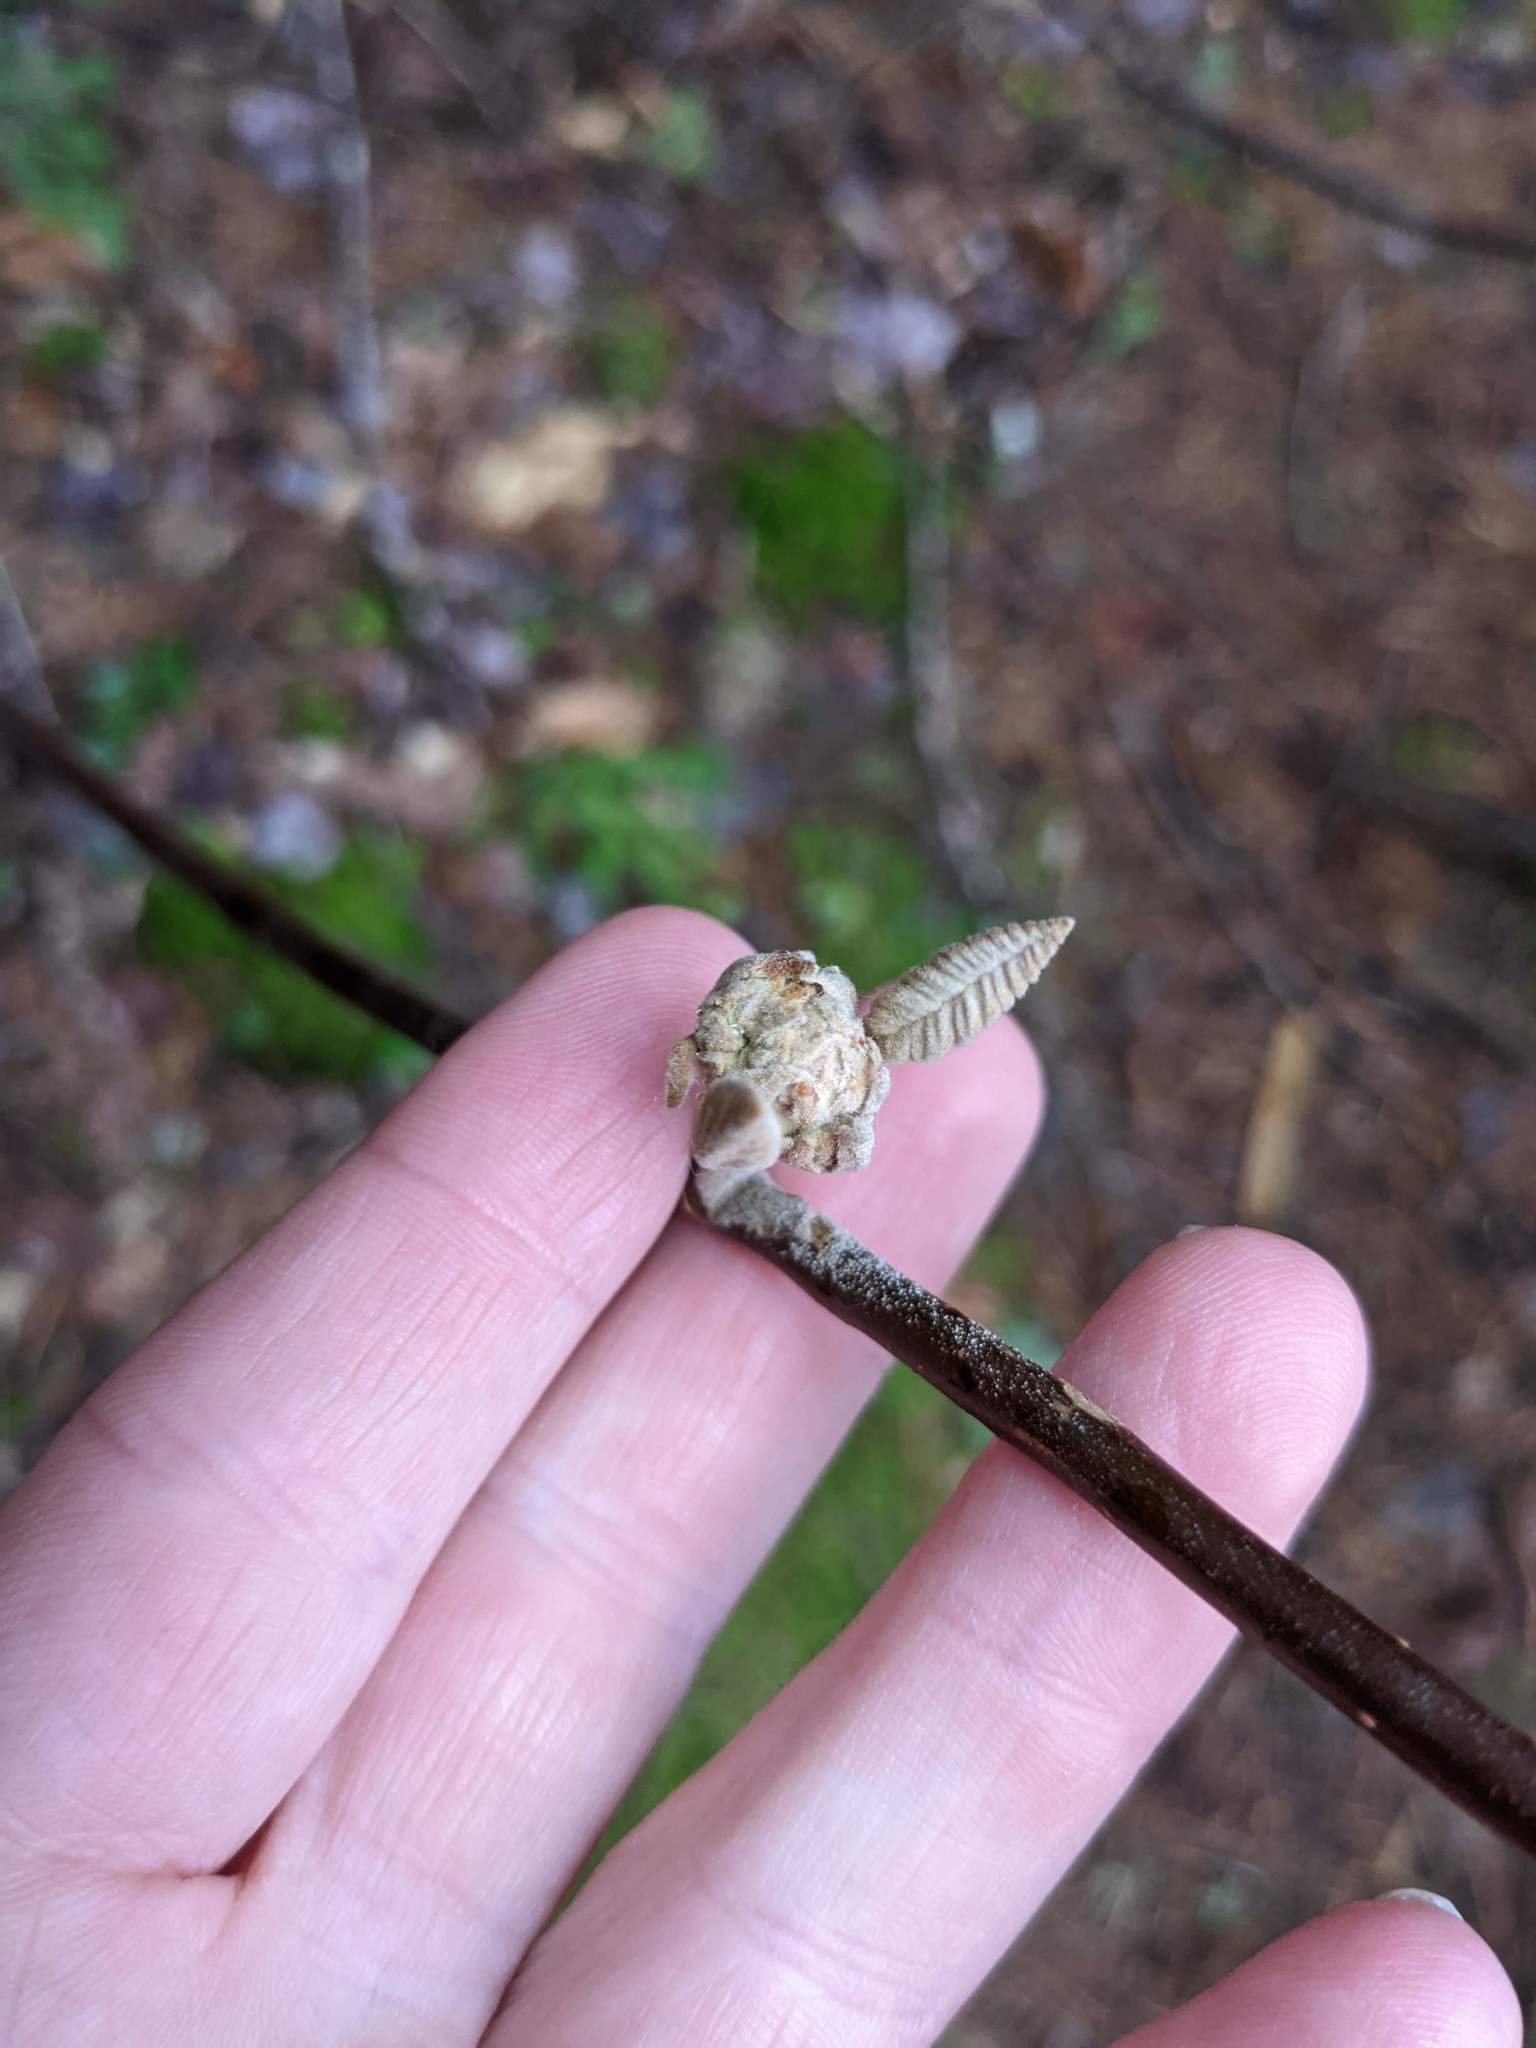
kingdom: Plantae
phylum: Tracheophyta
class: Magnoliopsida
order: Dipsacales
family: Viburnaceae
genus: Viburnum
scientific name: Viburnum lantanoides
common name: Hobblebush
